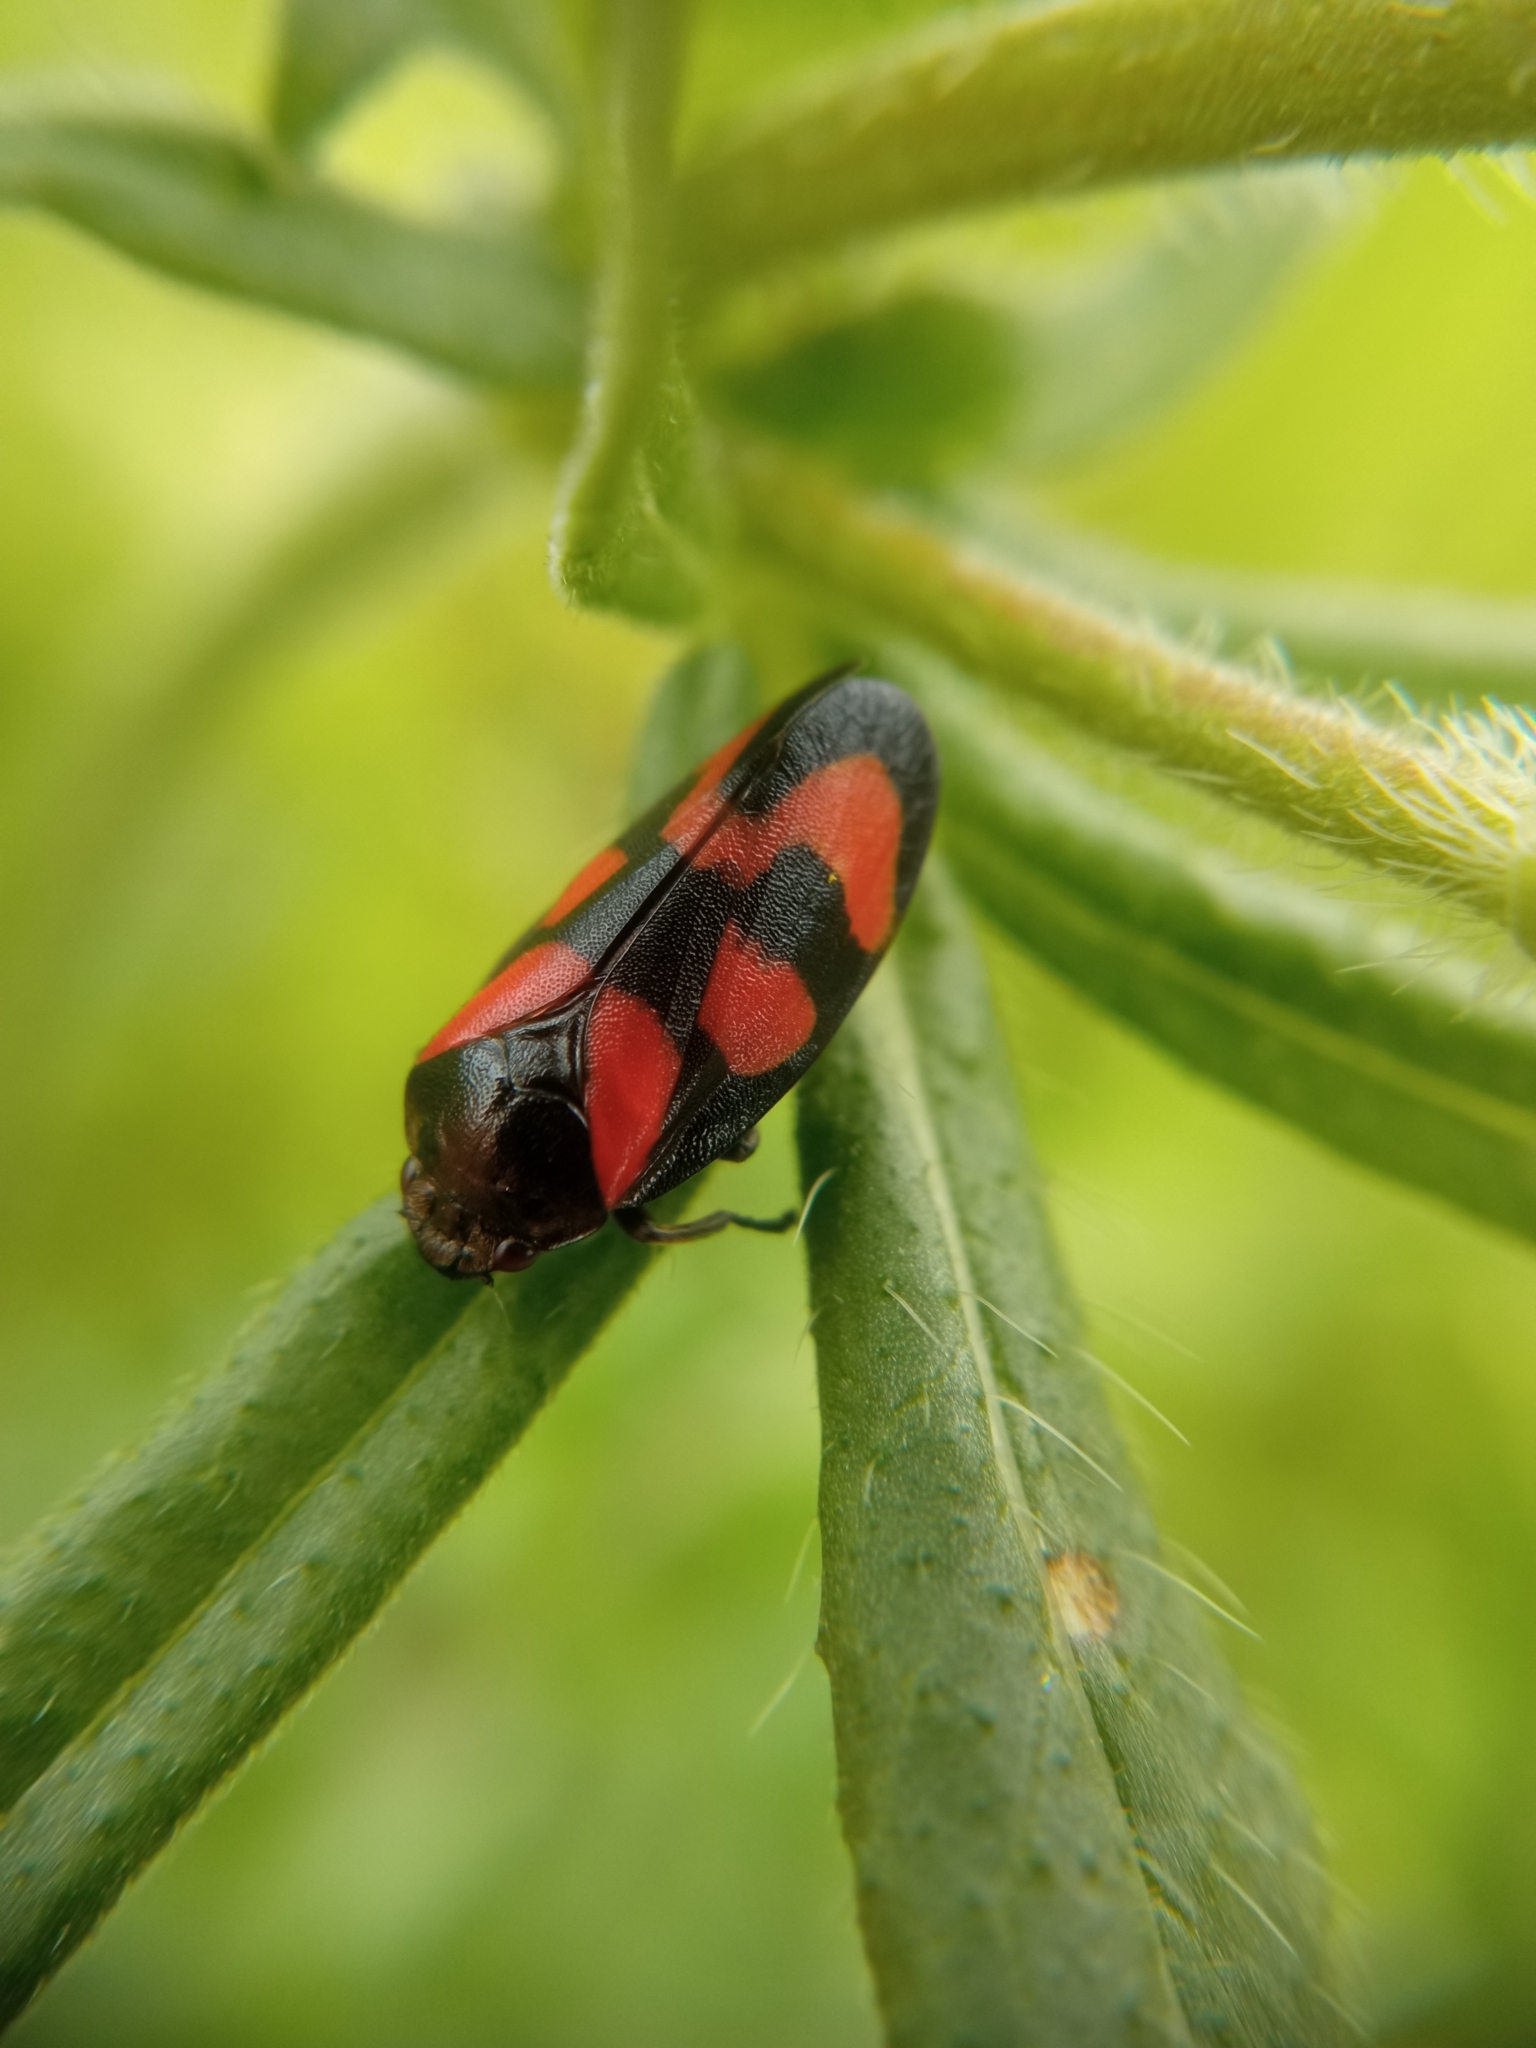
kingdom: Animalia
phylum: Arthropoda
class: Insecta
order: Hemiptera
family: Cercopidae
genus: Cercopis
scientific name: Cercopis vulnerata
